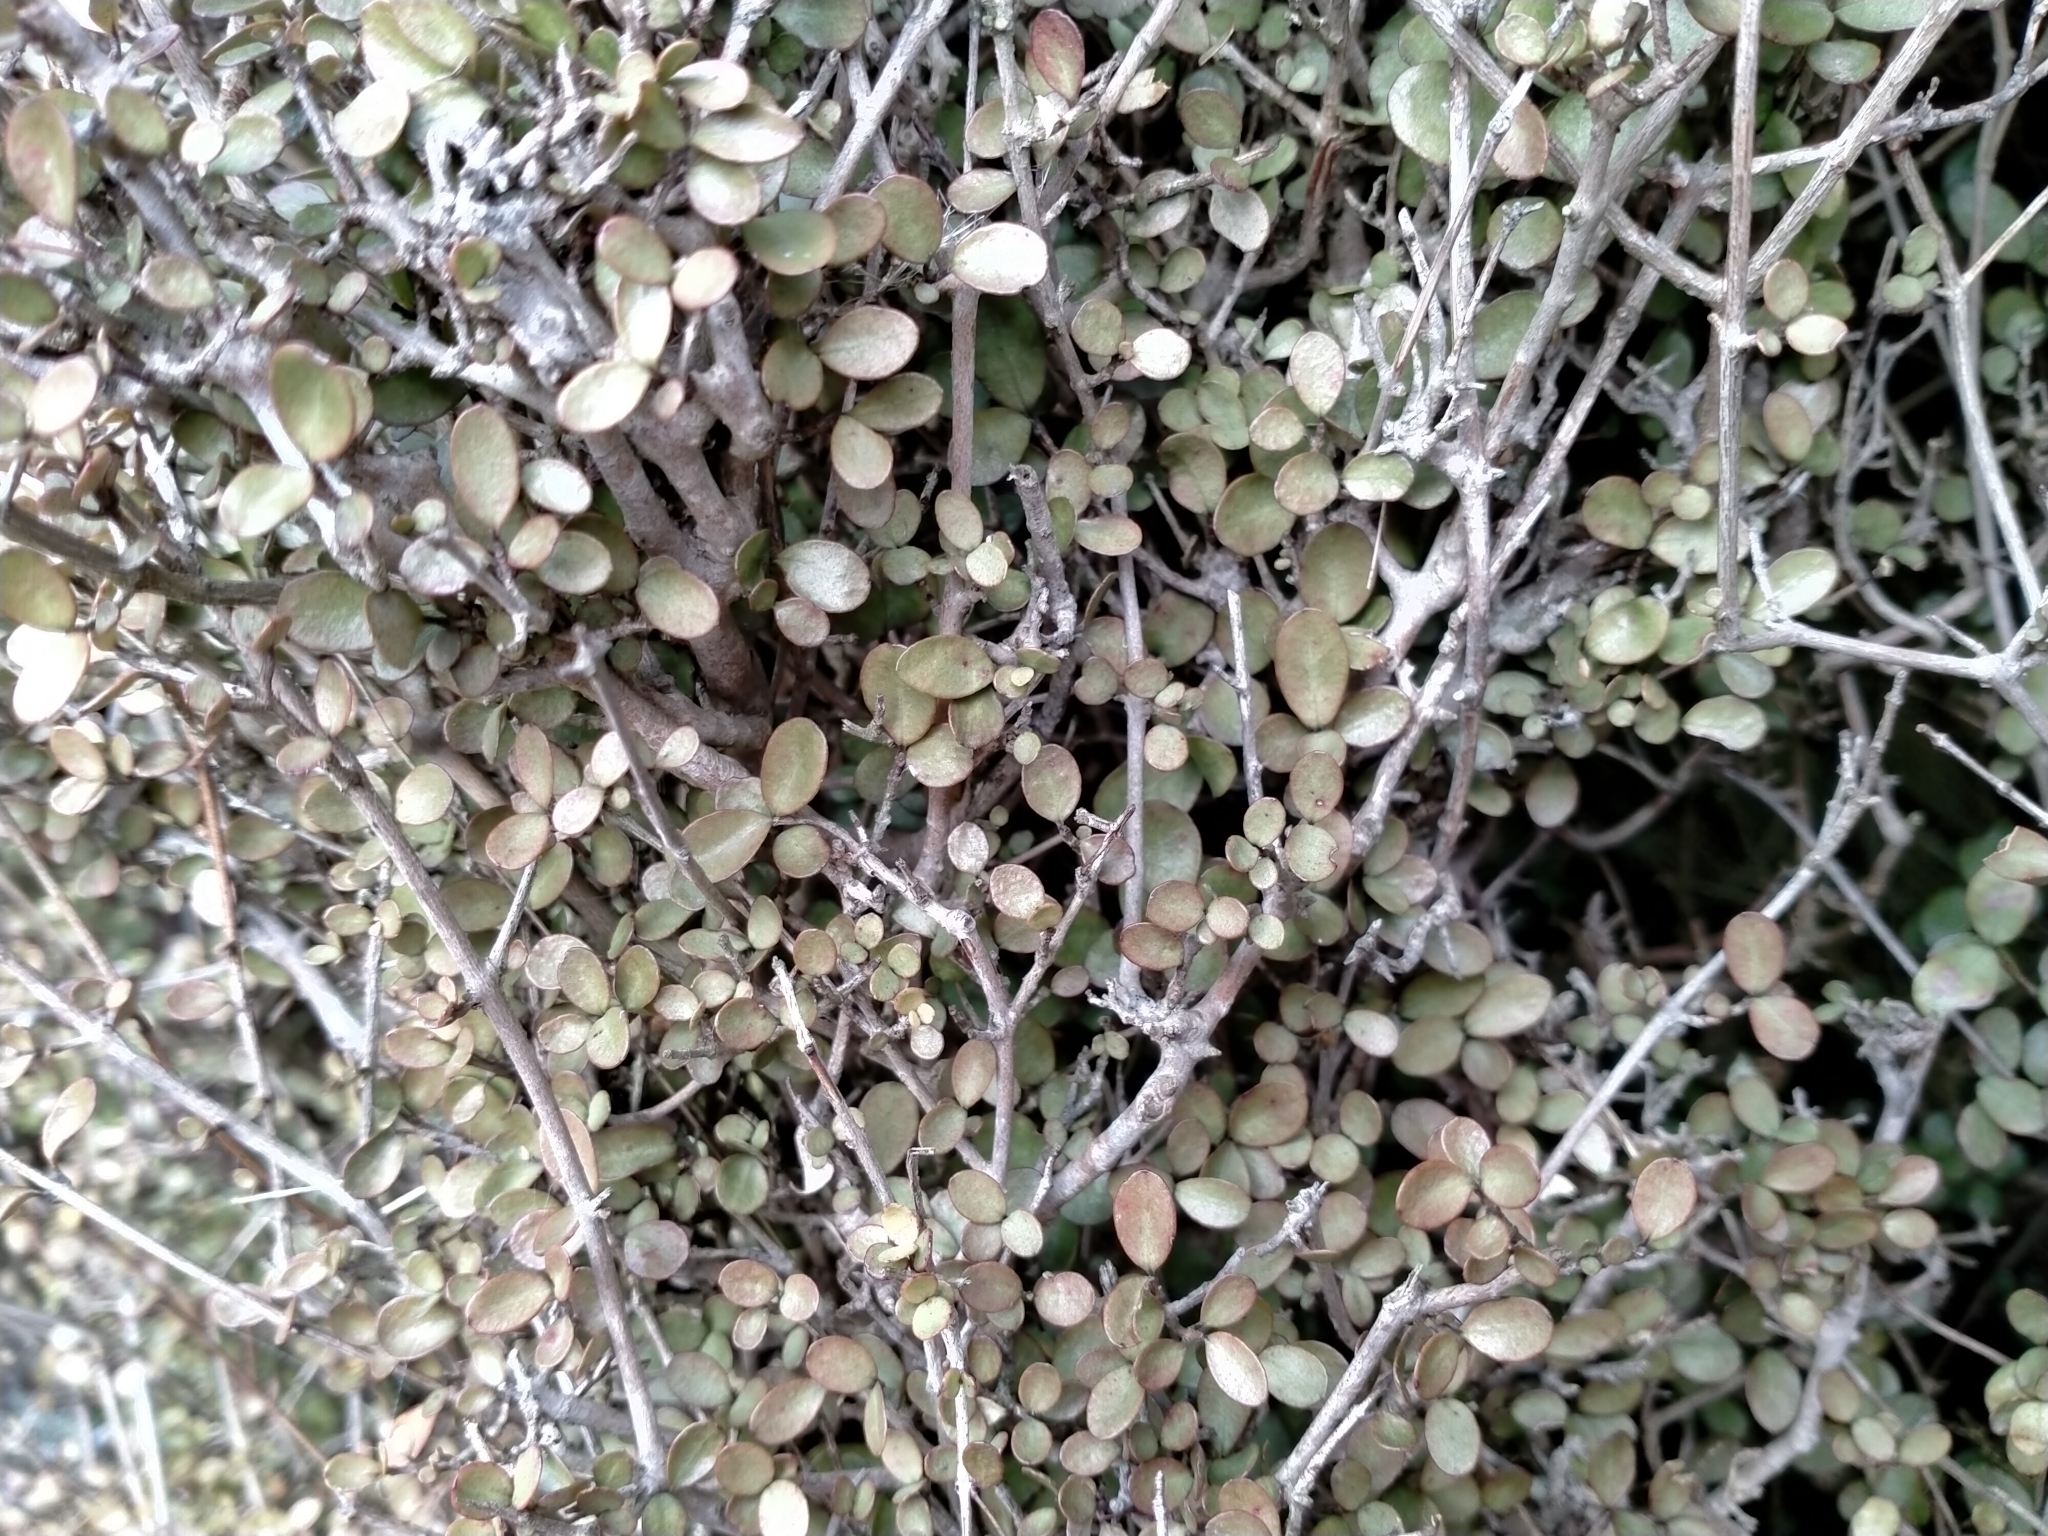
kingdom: Plantae
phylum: Tracheophyta
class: Magnoliopsida
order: Myrtales
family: Myrtaceae
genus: Neomyrtus
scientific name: Neomyrtus pedunculata
